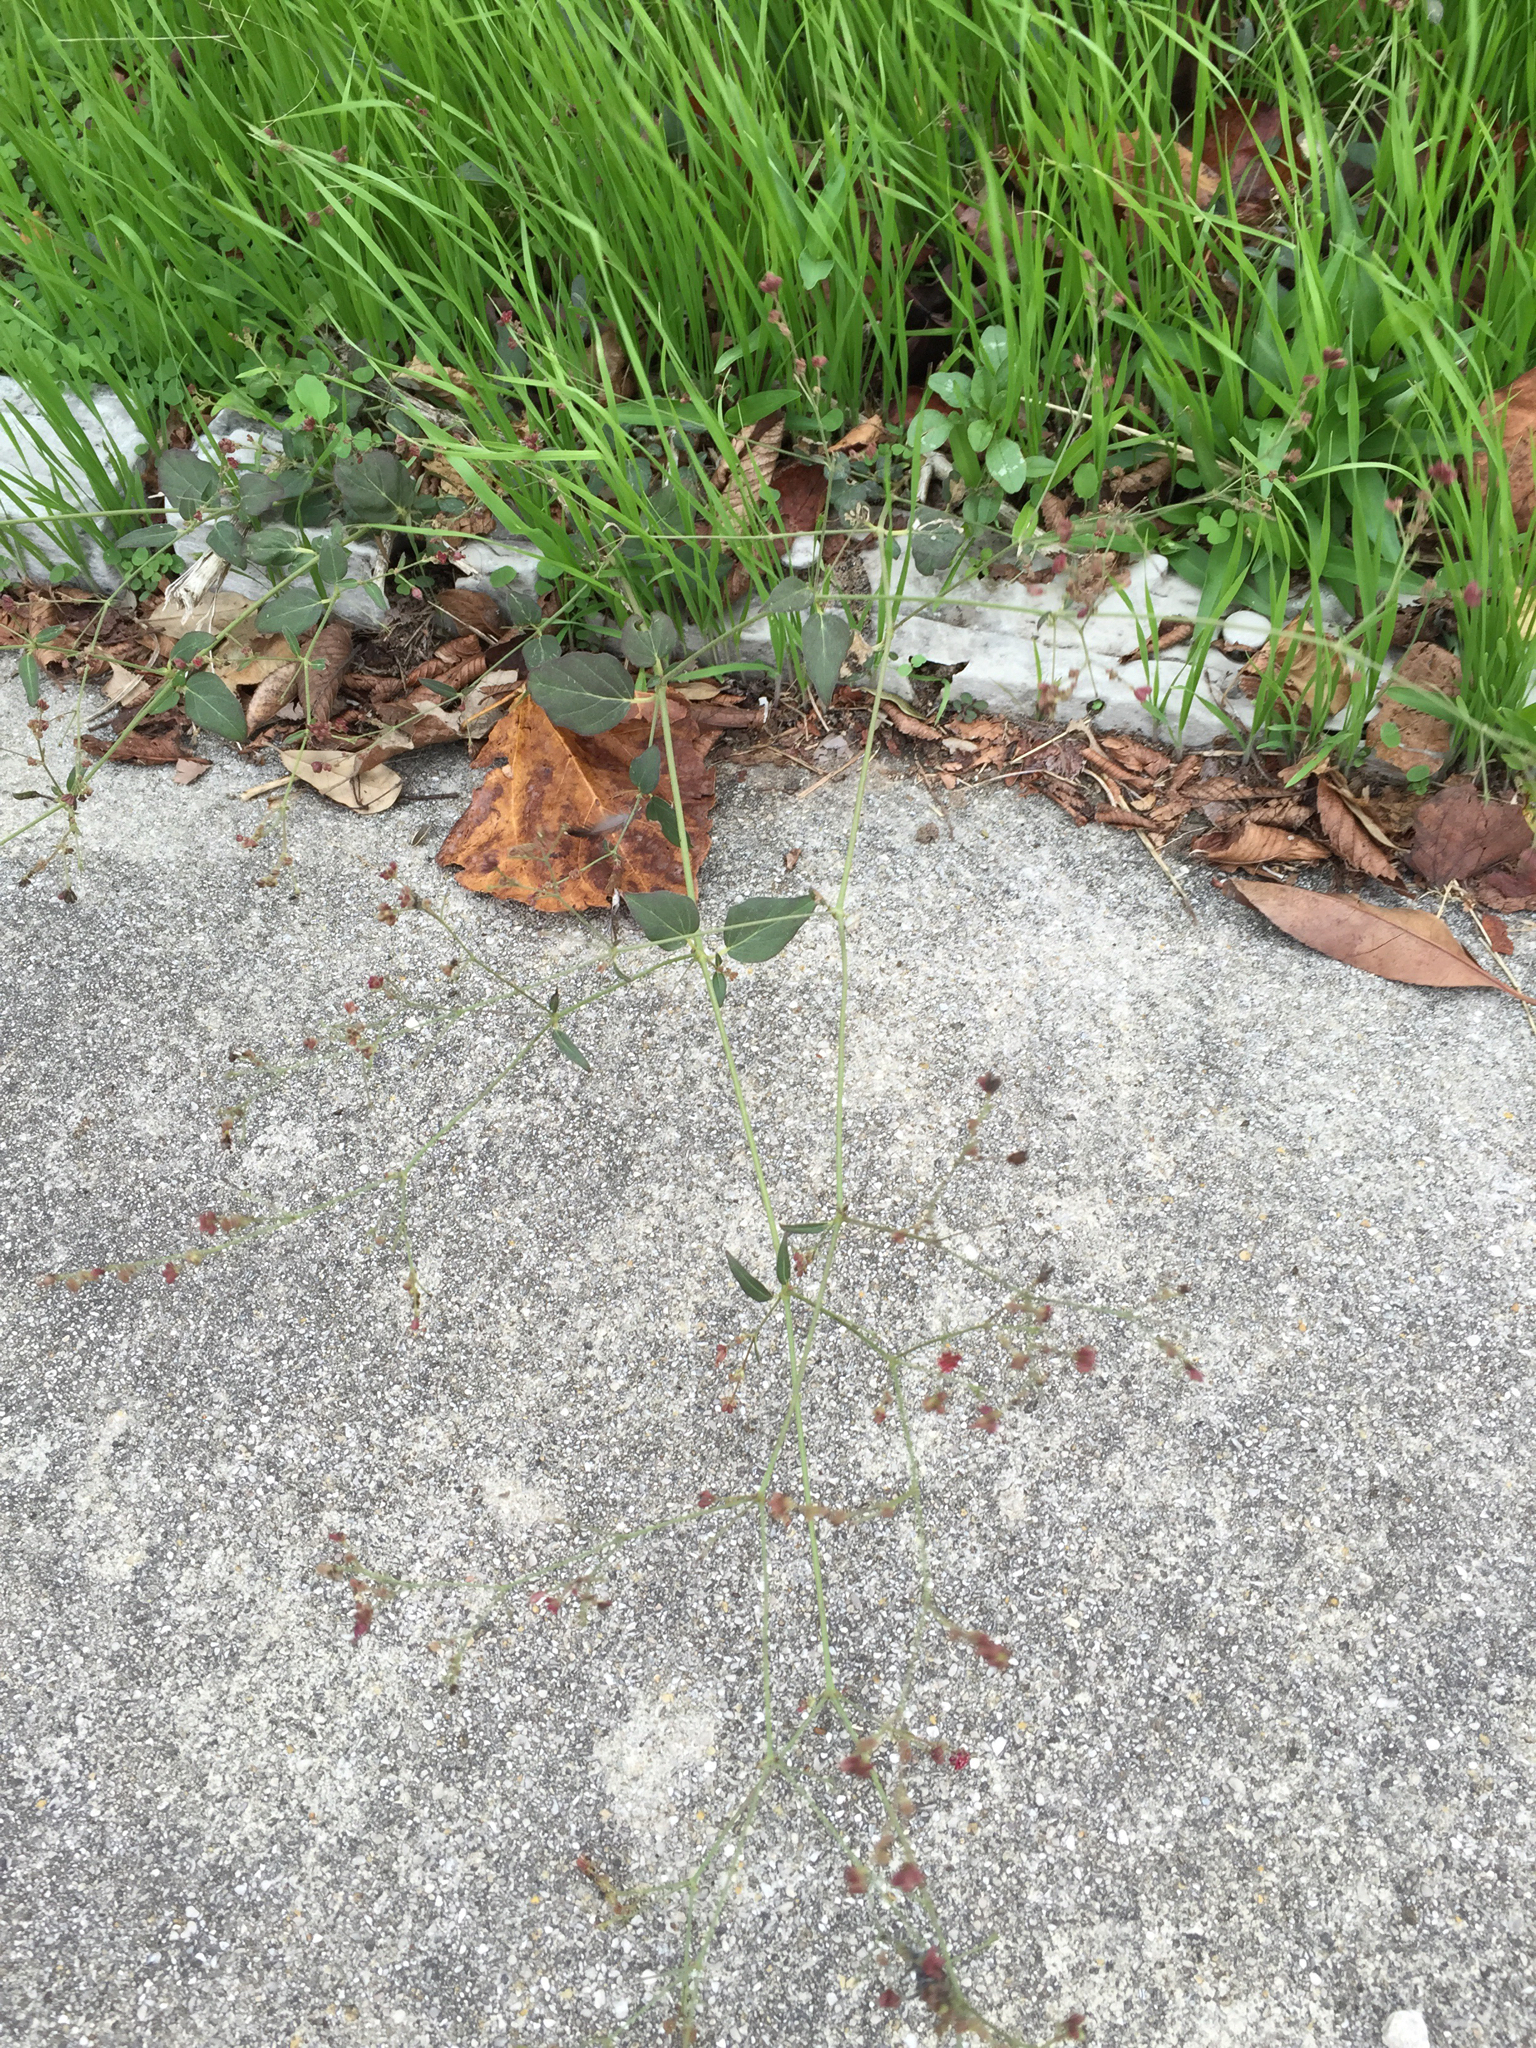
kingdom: Plantae
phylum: Tracheophyta
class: Magnoliopsida
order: Caryophyllales
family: Nyctaginaceae
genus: Boerhavia
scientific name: Boerhavia coccinea
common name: Scarlet spiderling
